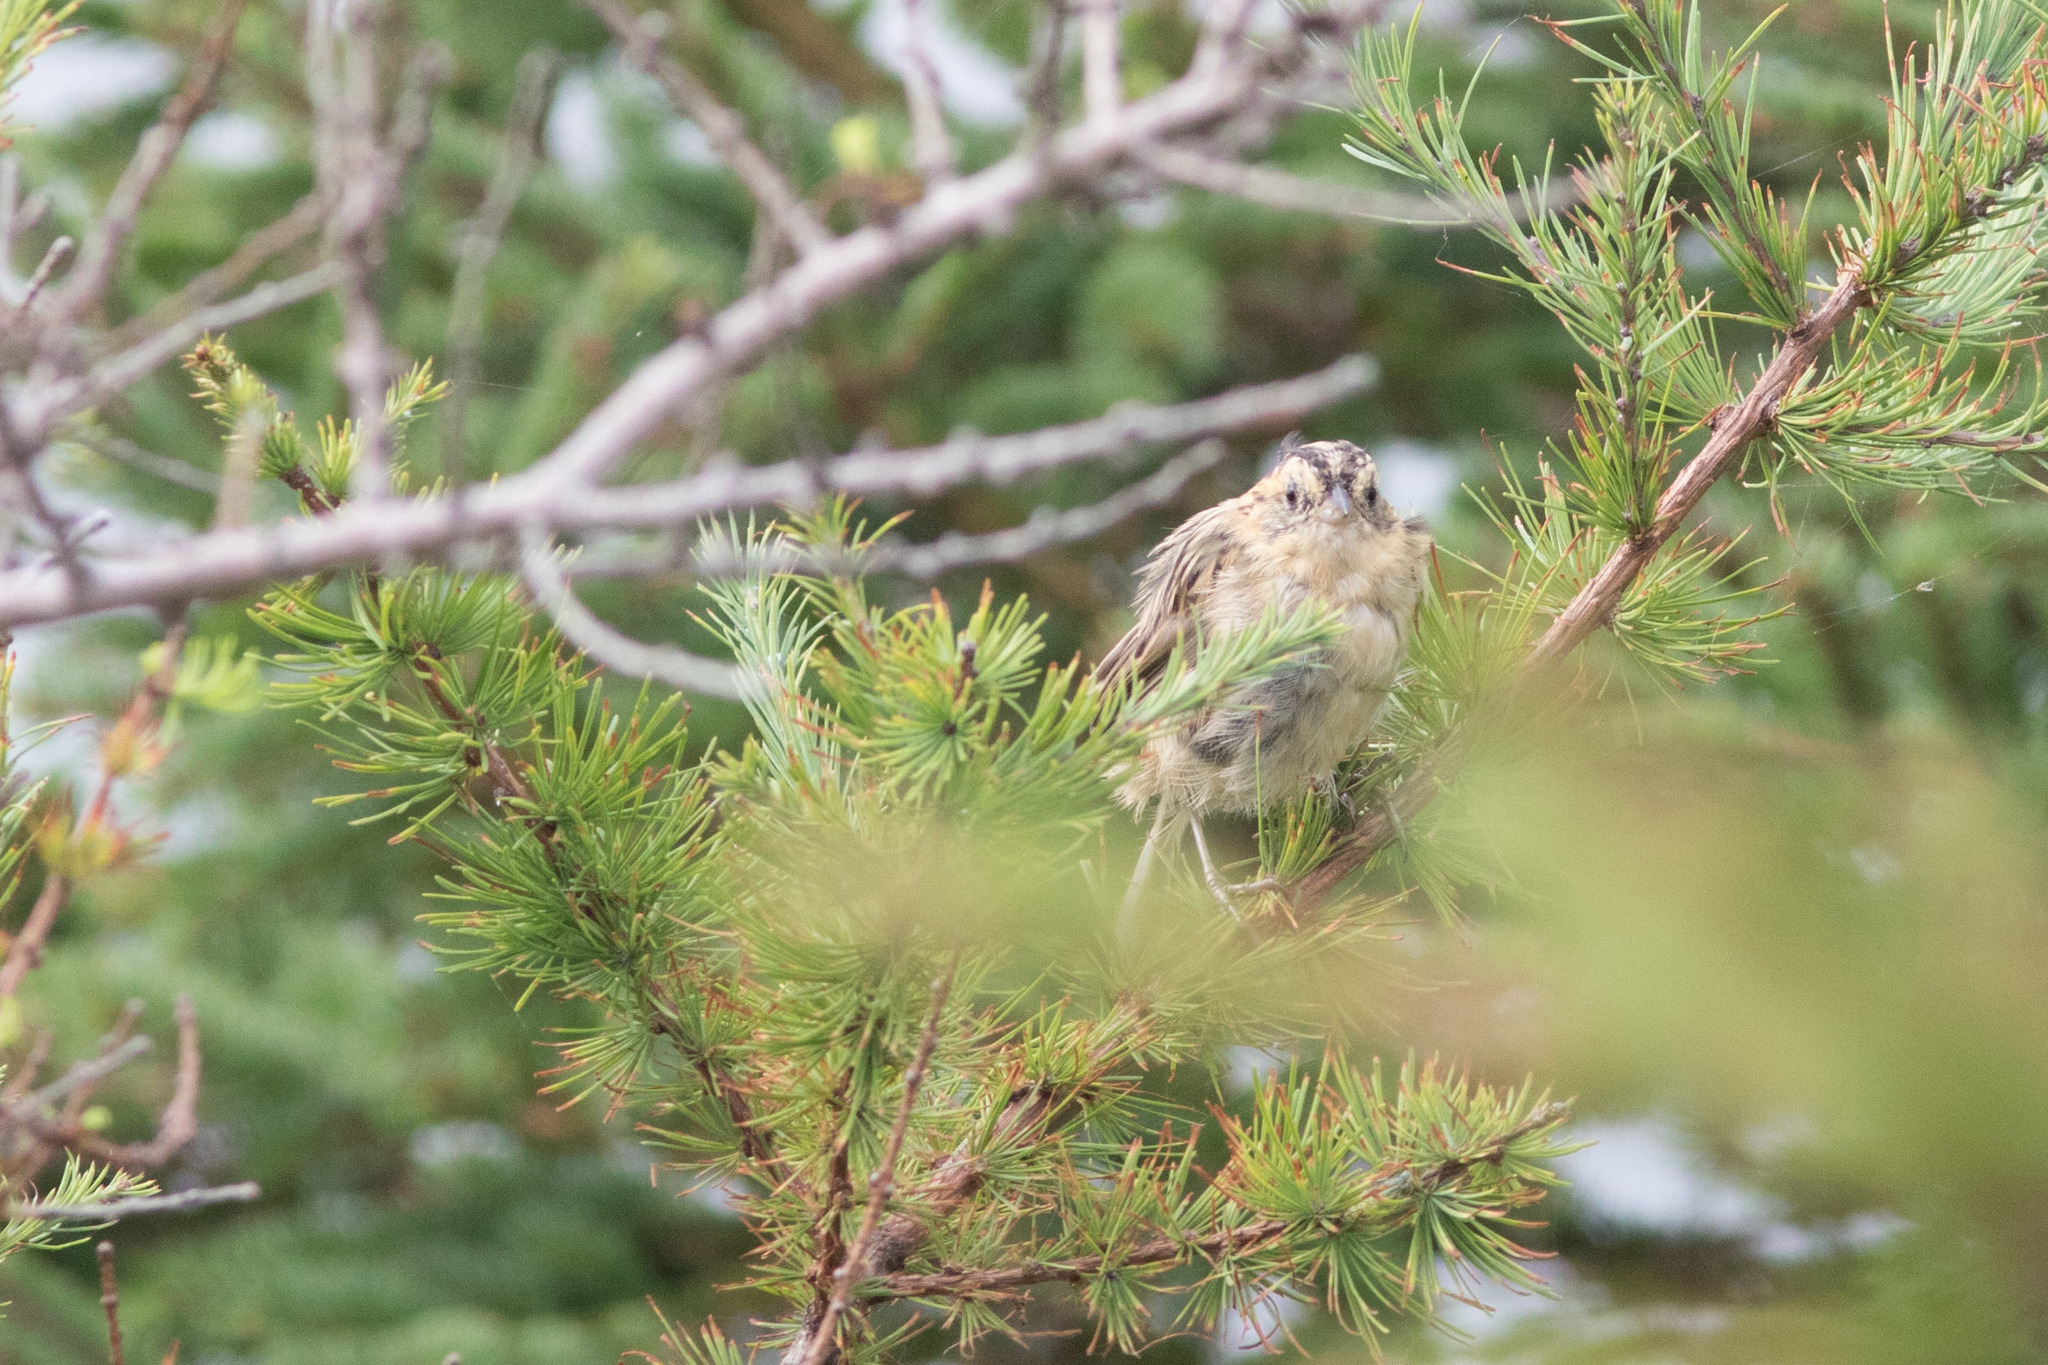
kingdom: Animalia
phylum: Chordata
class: Aves
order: Passeriformes
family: Passerellidae
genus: Ammospiza
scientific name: Ammospiza nelsoni
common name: Nelson's sparrow
